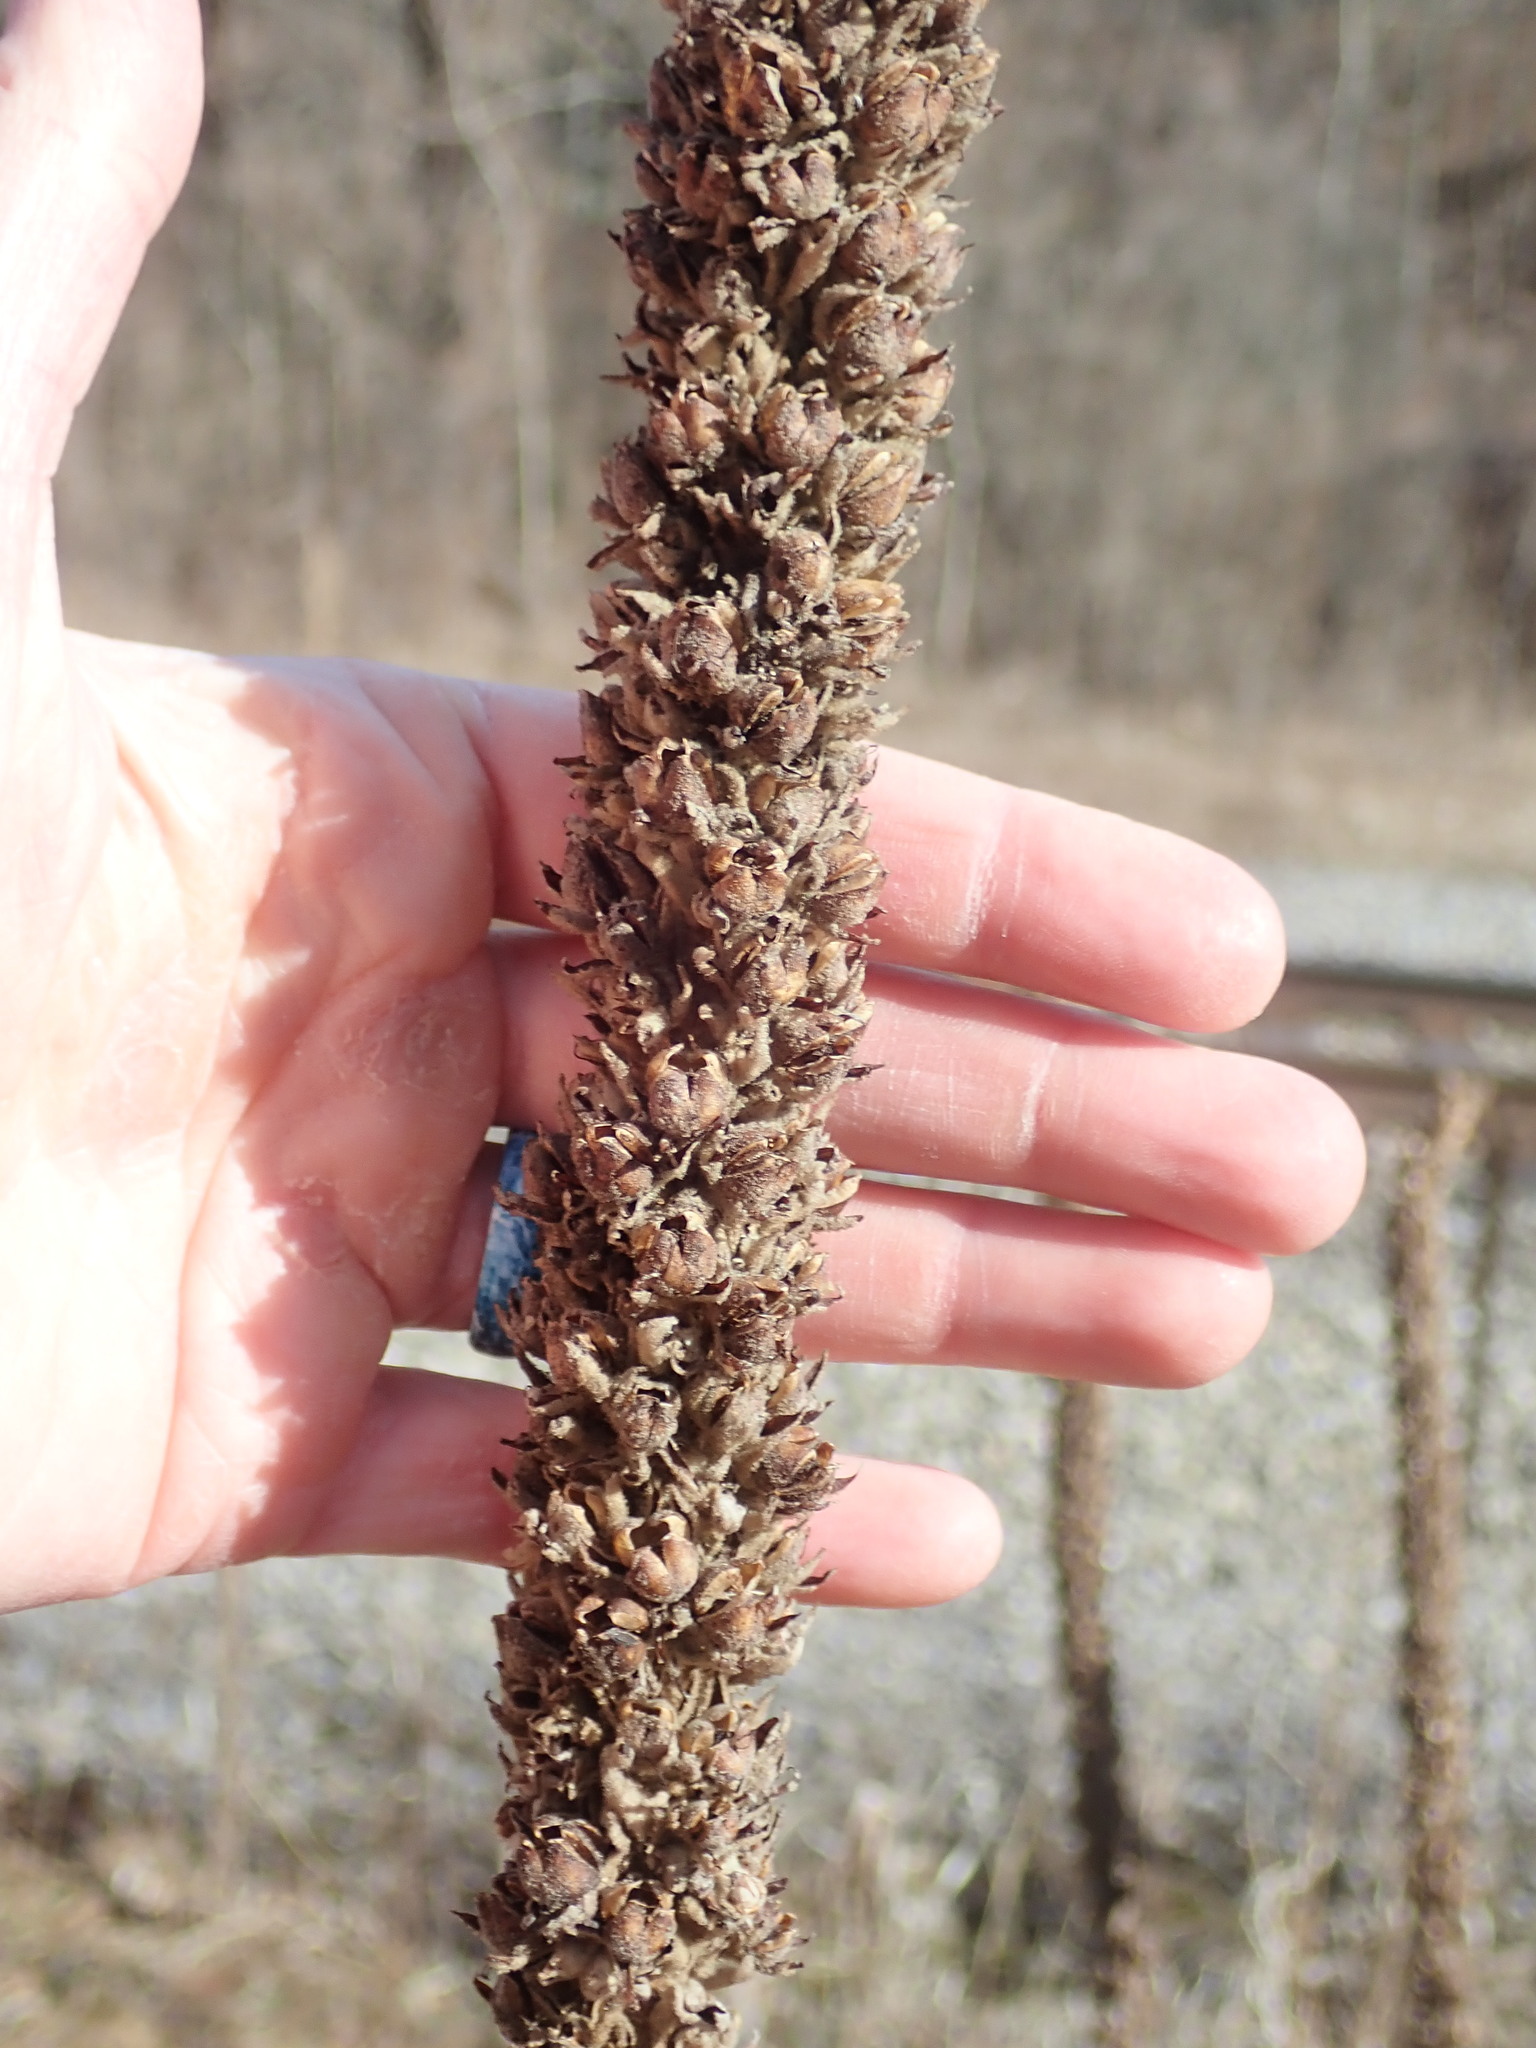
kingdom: Plantae
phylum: Tracheophyta
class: Magnoliopsida
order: Lamiales
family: Scrophulariaceae
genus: Verbascum
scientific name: Verbascum thapsus
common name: Common mullein
